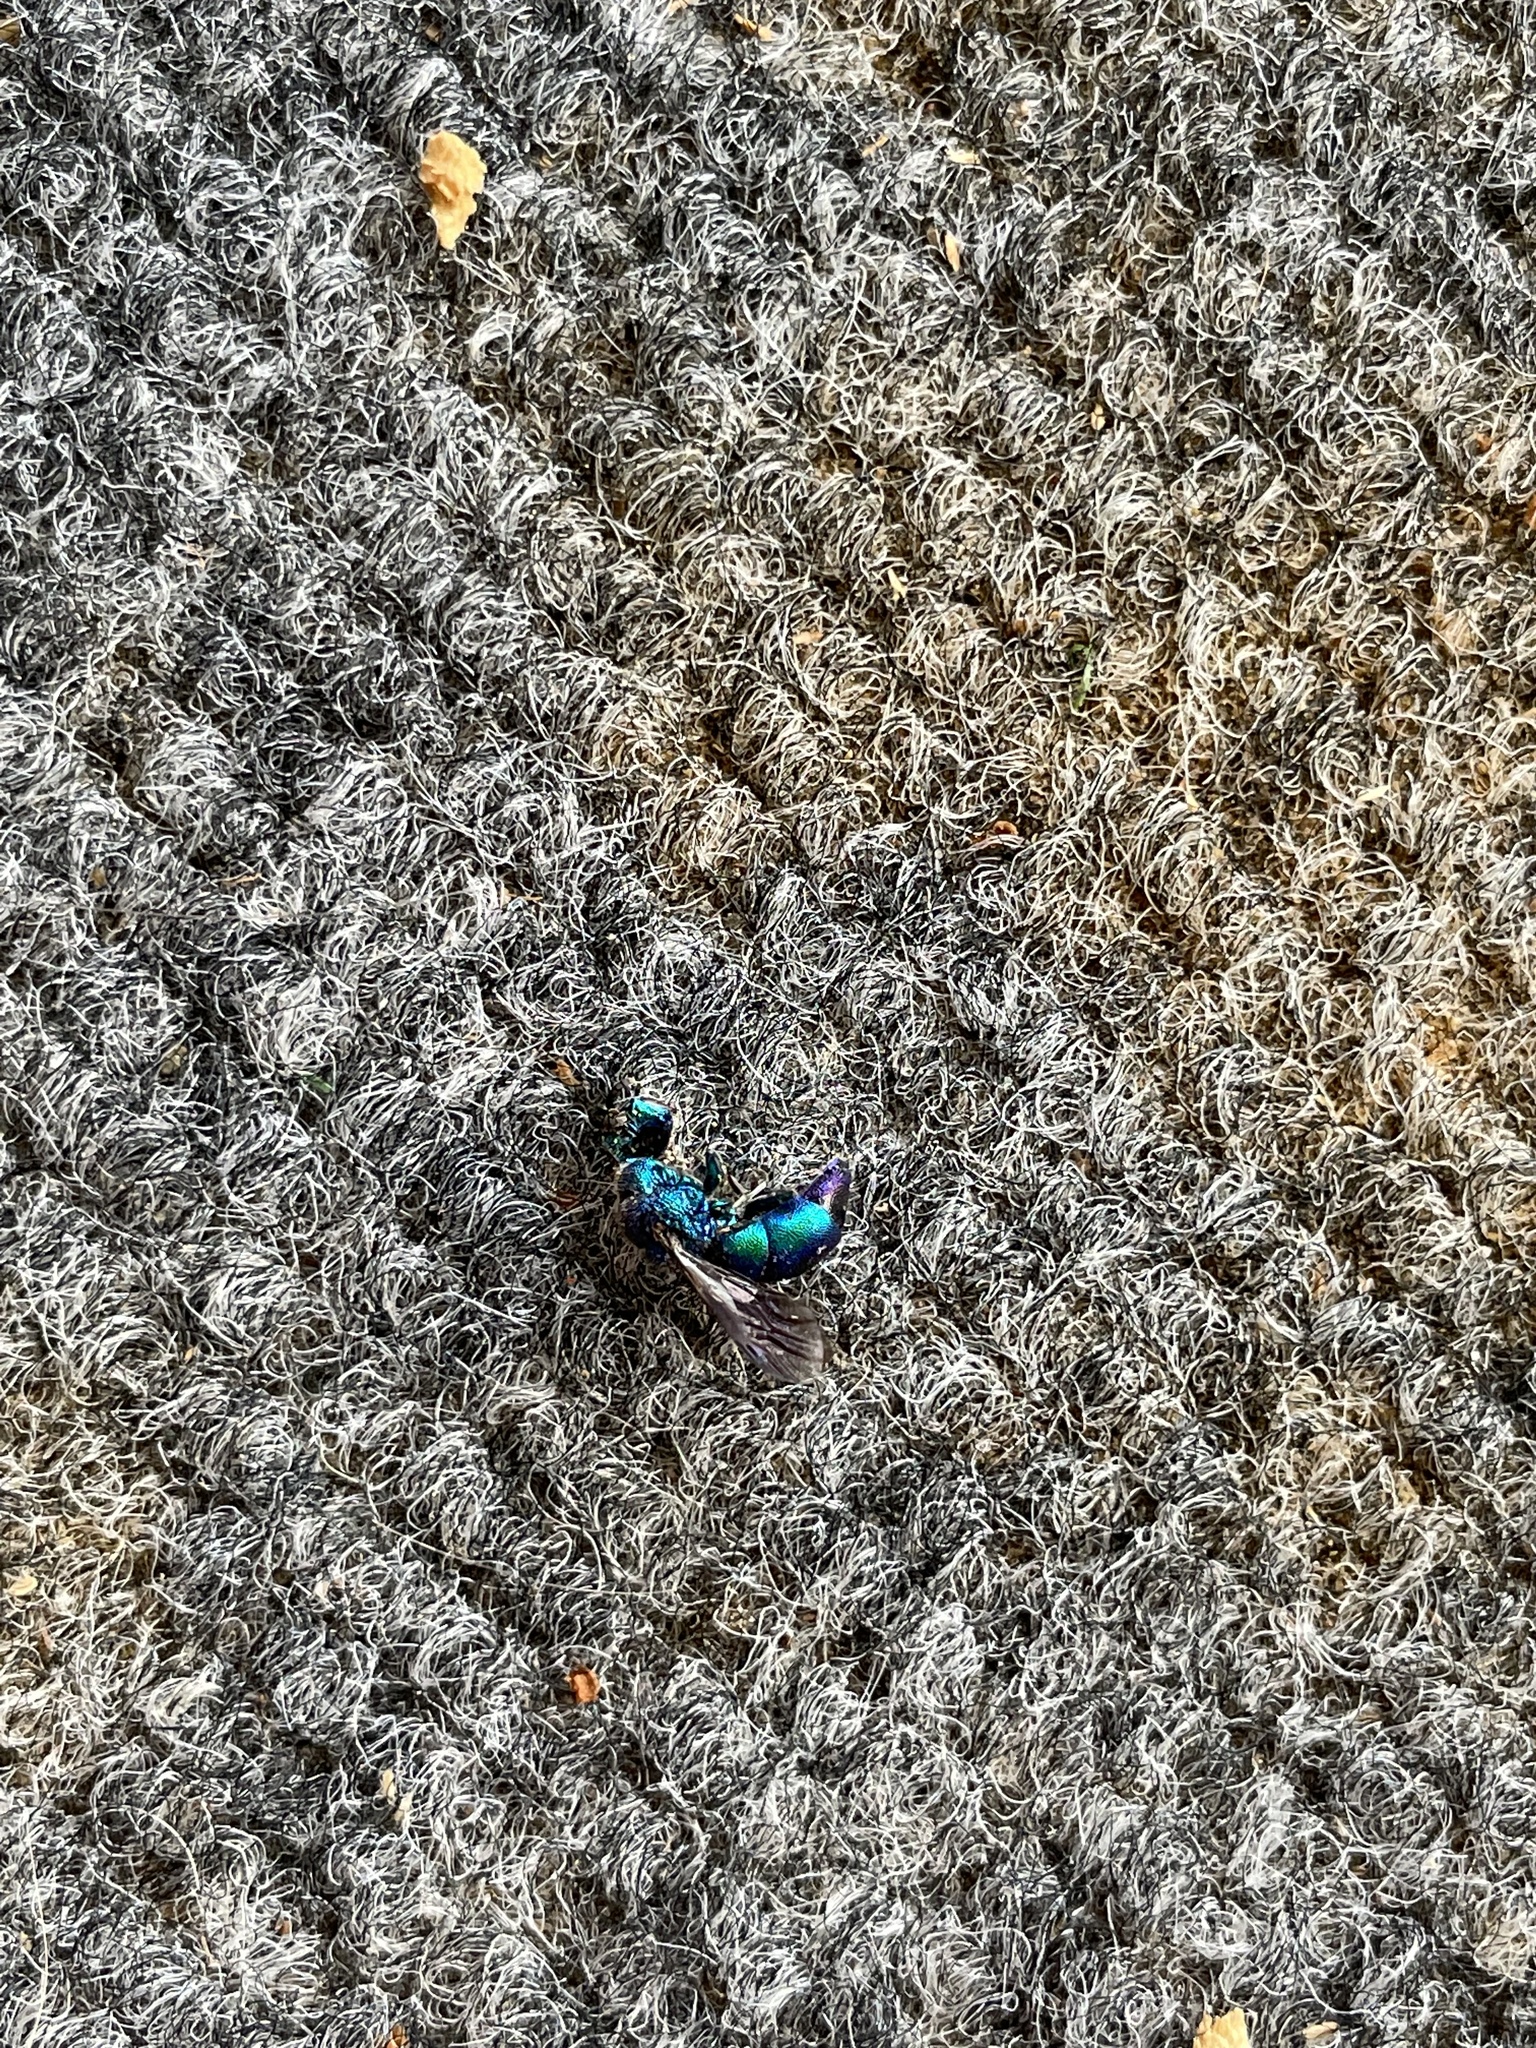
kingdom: Animalia
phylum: Arthropoda
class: Insecta
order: Hymenoptera
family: Chrysididae
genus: Chrysis
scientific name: Chrysis angolensis
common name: Cuckoo wasp
